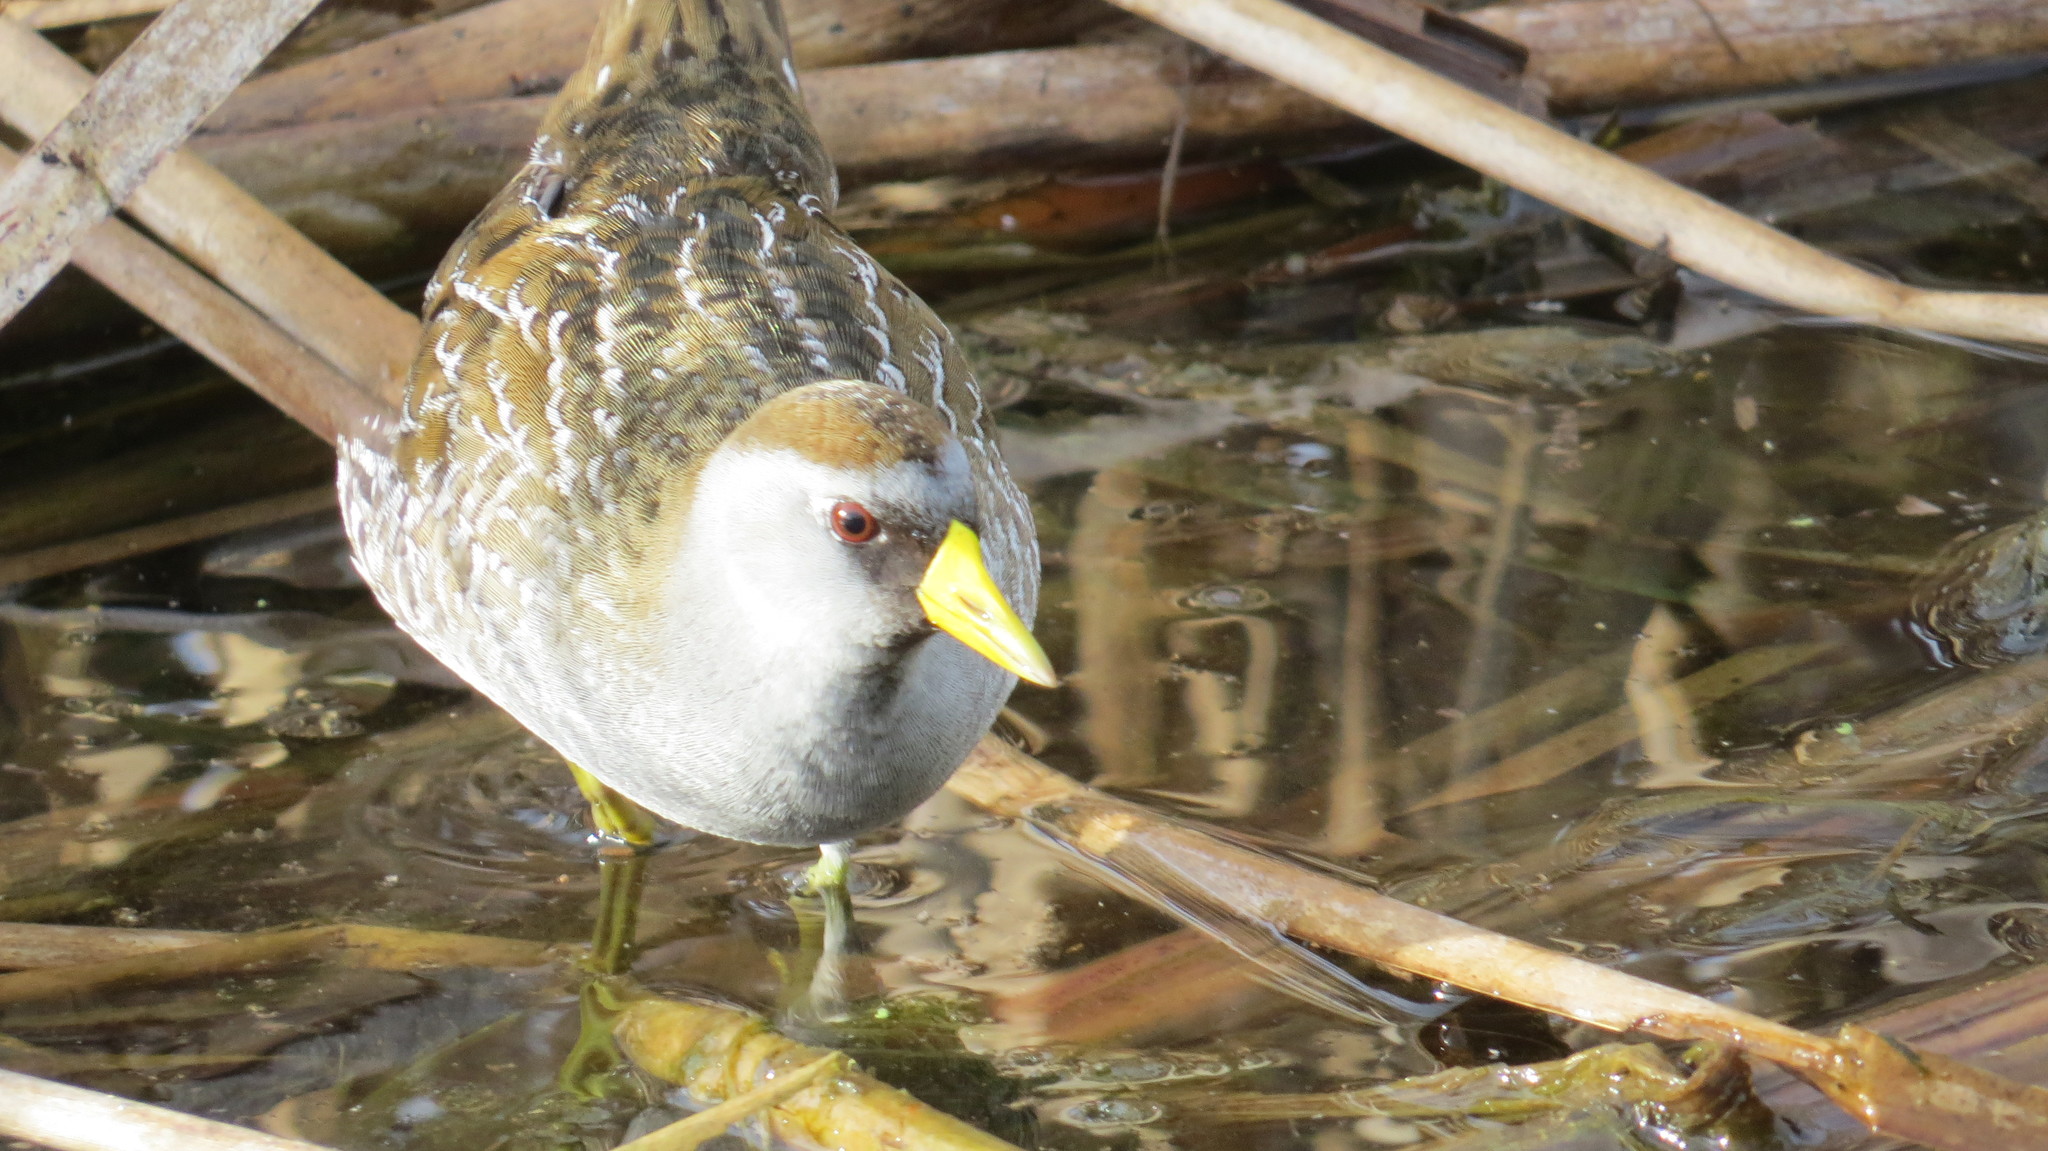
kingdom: Animalia
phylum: Chordata
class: Aves
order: Gruiformes
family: Rallidae
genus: Porzana
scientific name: Porzana carolina
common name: Sora
